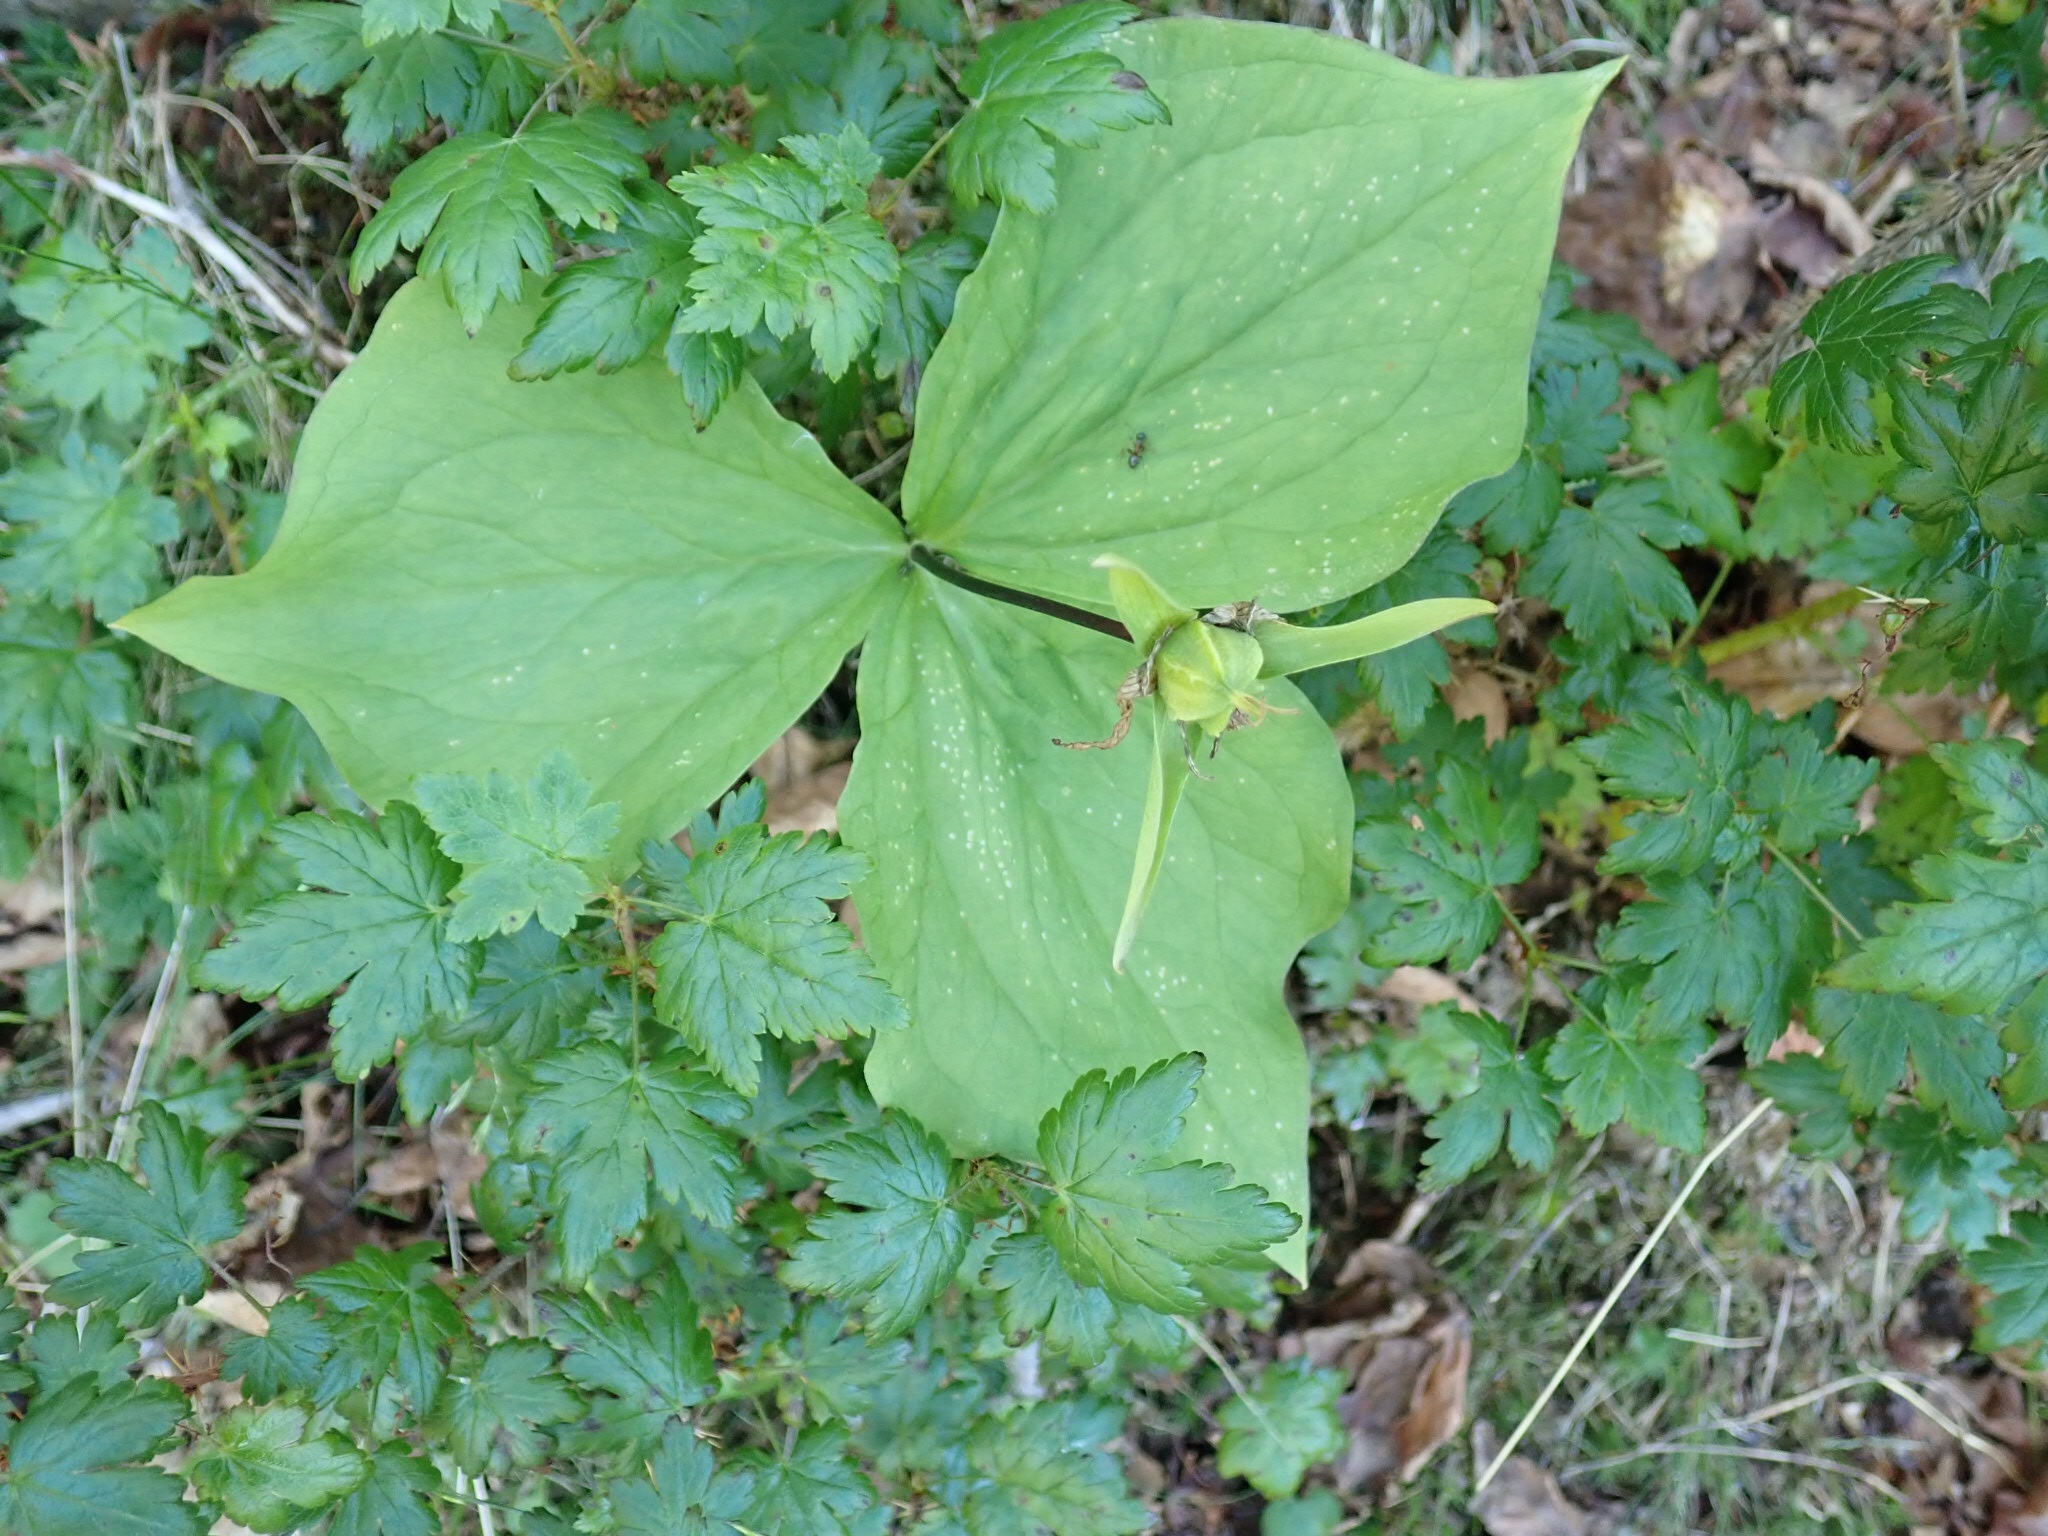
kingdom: Plantae
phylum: Tracheophyta
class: Liliopsida
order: Liliales
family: Melanthiaceae
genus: Trillium
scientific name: Trillium ovatum
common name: Pacific trillium
